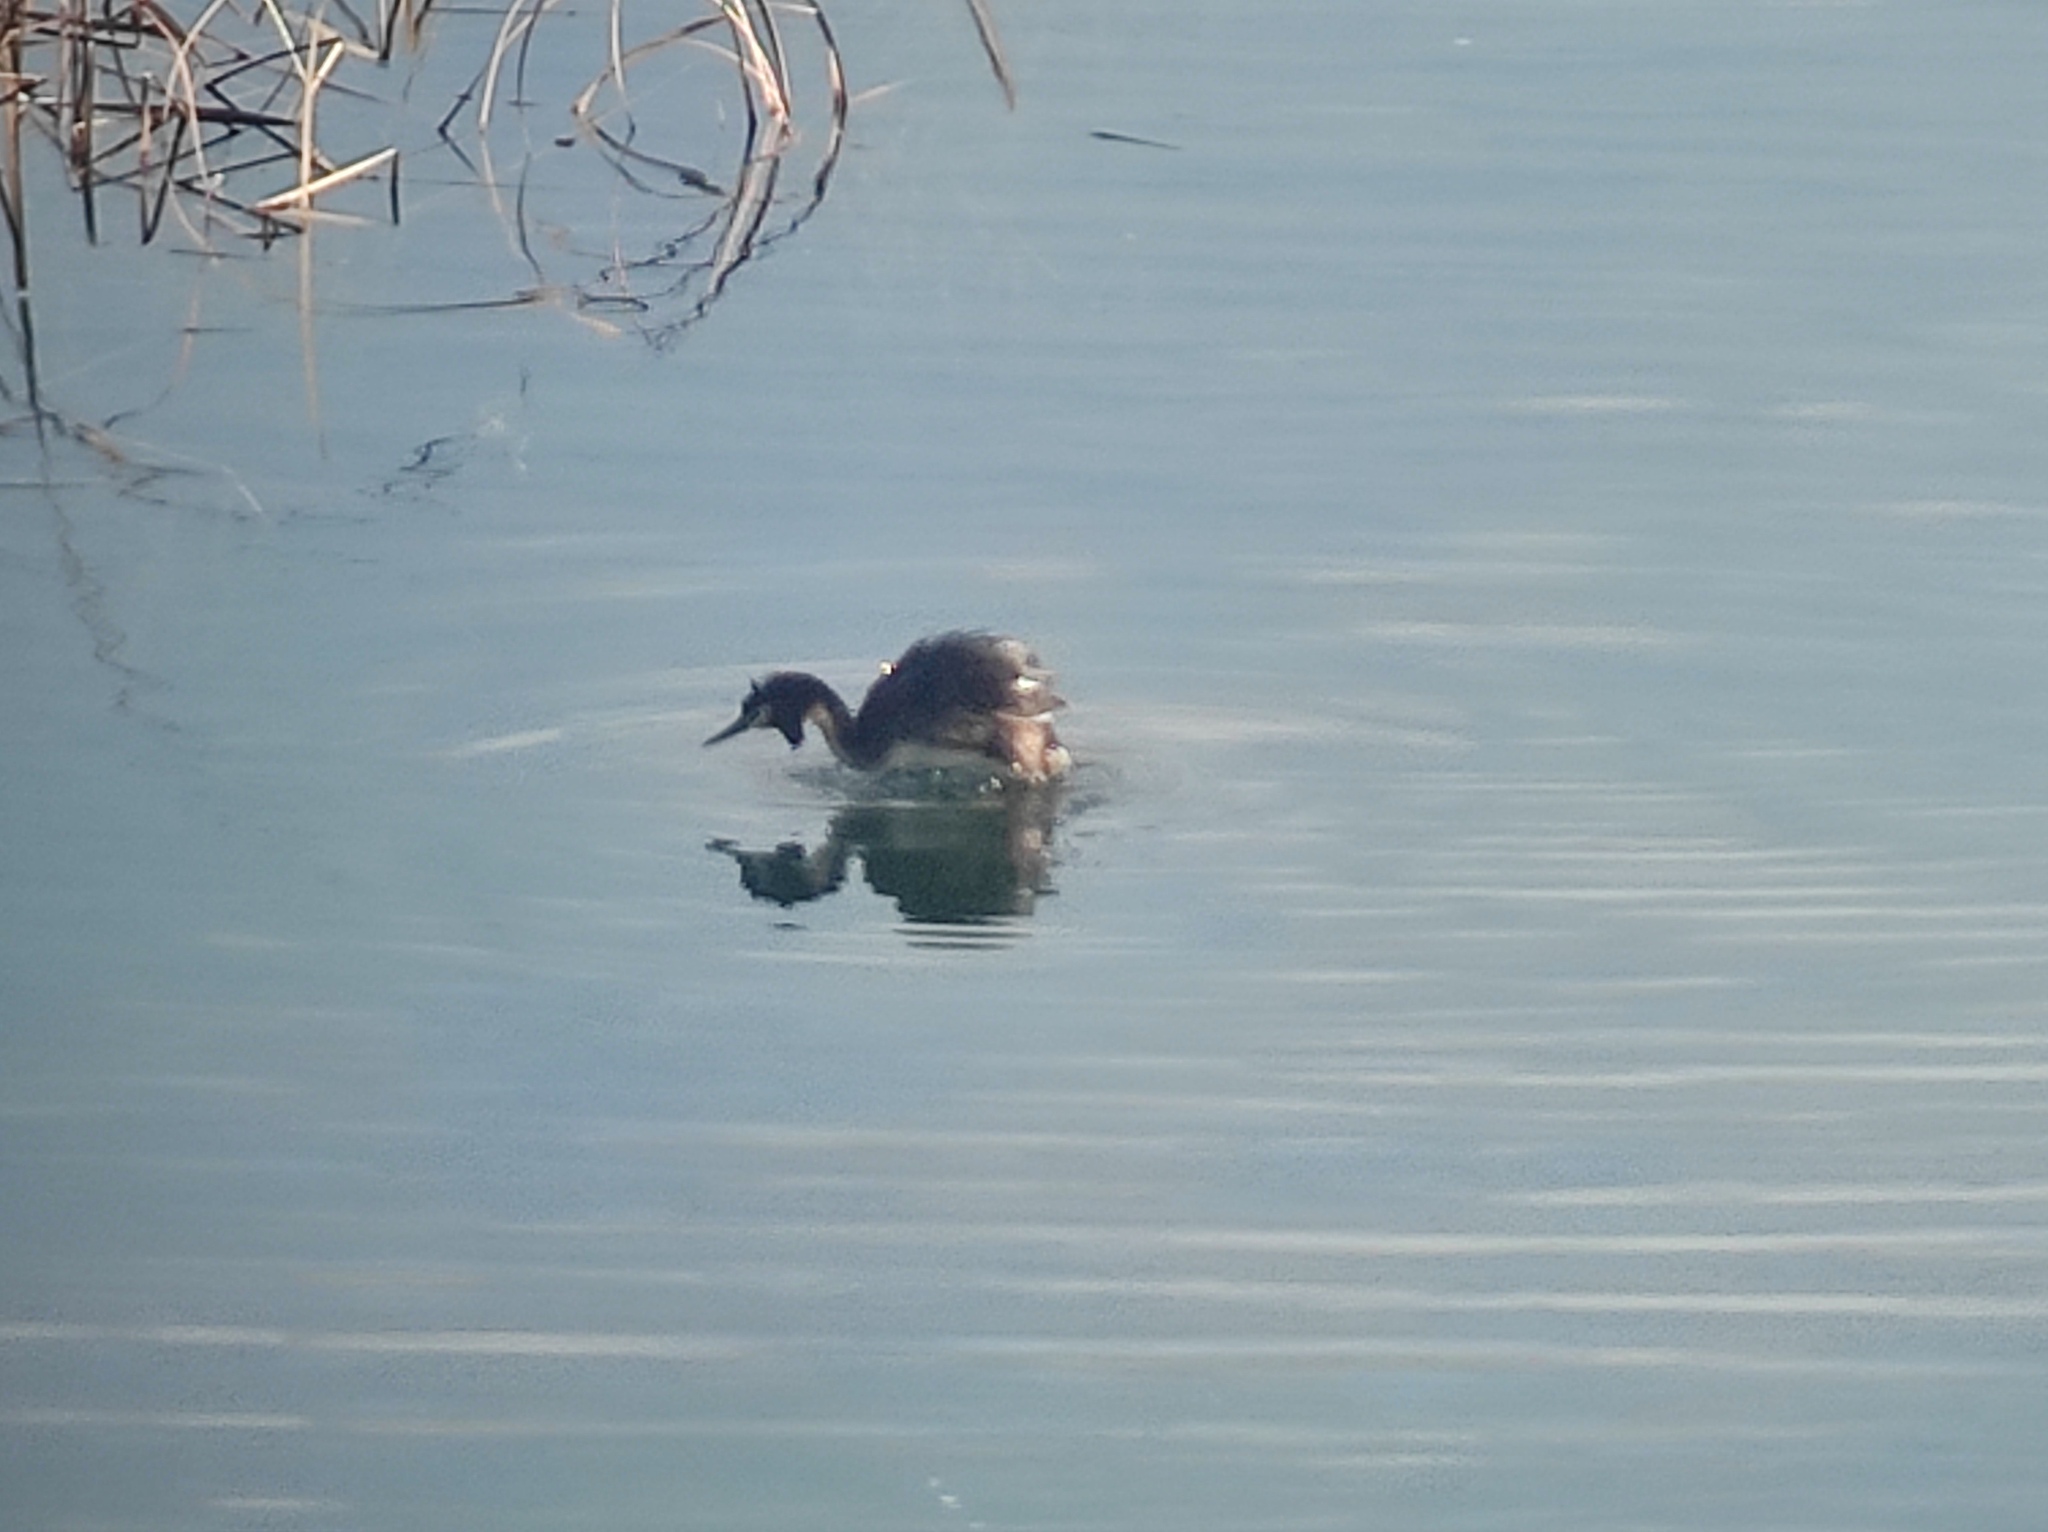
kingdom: Animalia
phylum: Chordata
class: Aves
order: Podicipediformes
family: Podicipedidae
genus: Podiceps
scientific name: Podiceps cristatus
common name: Great crested grebe
